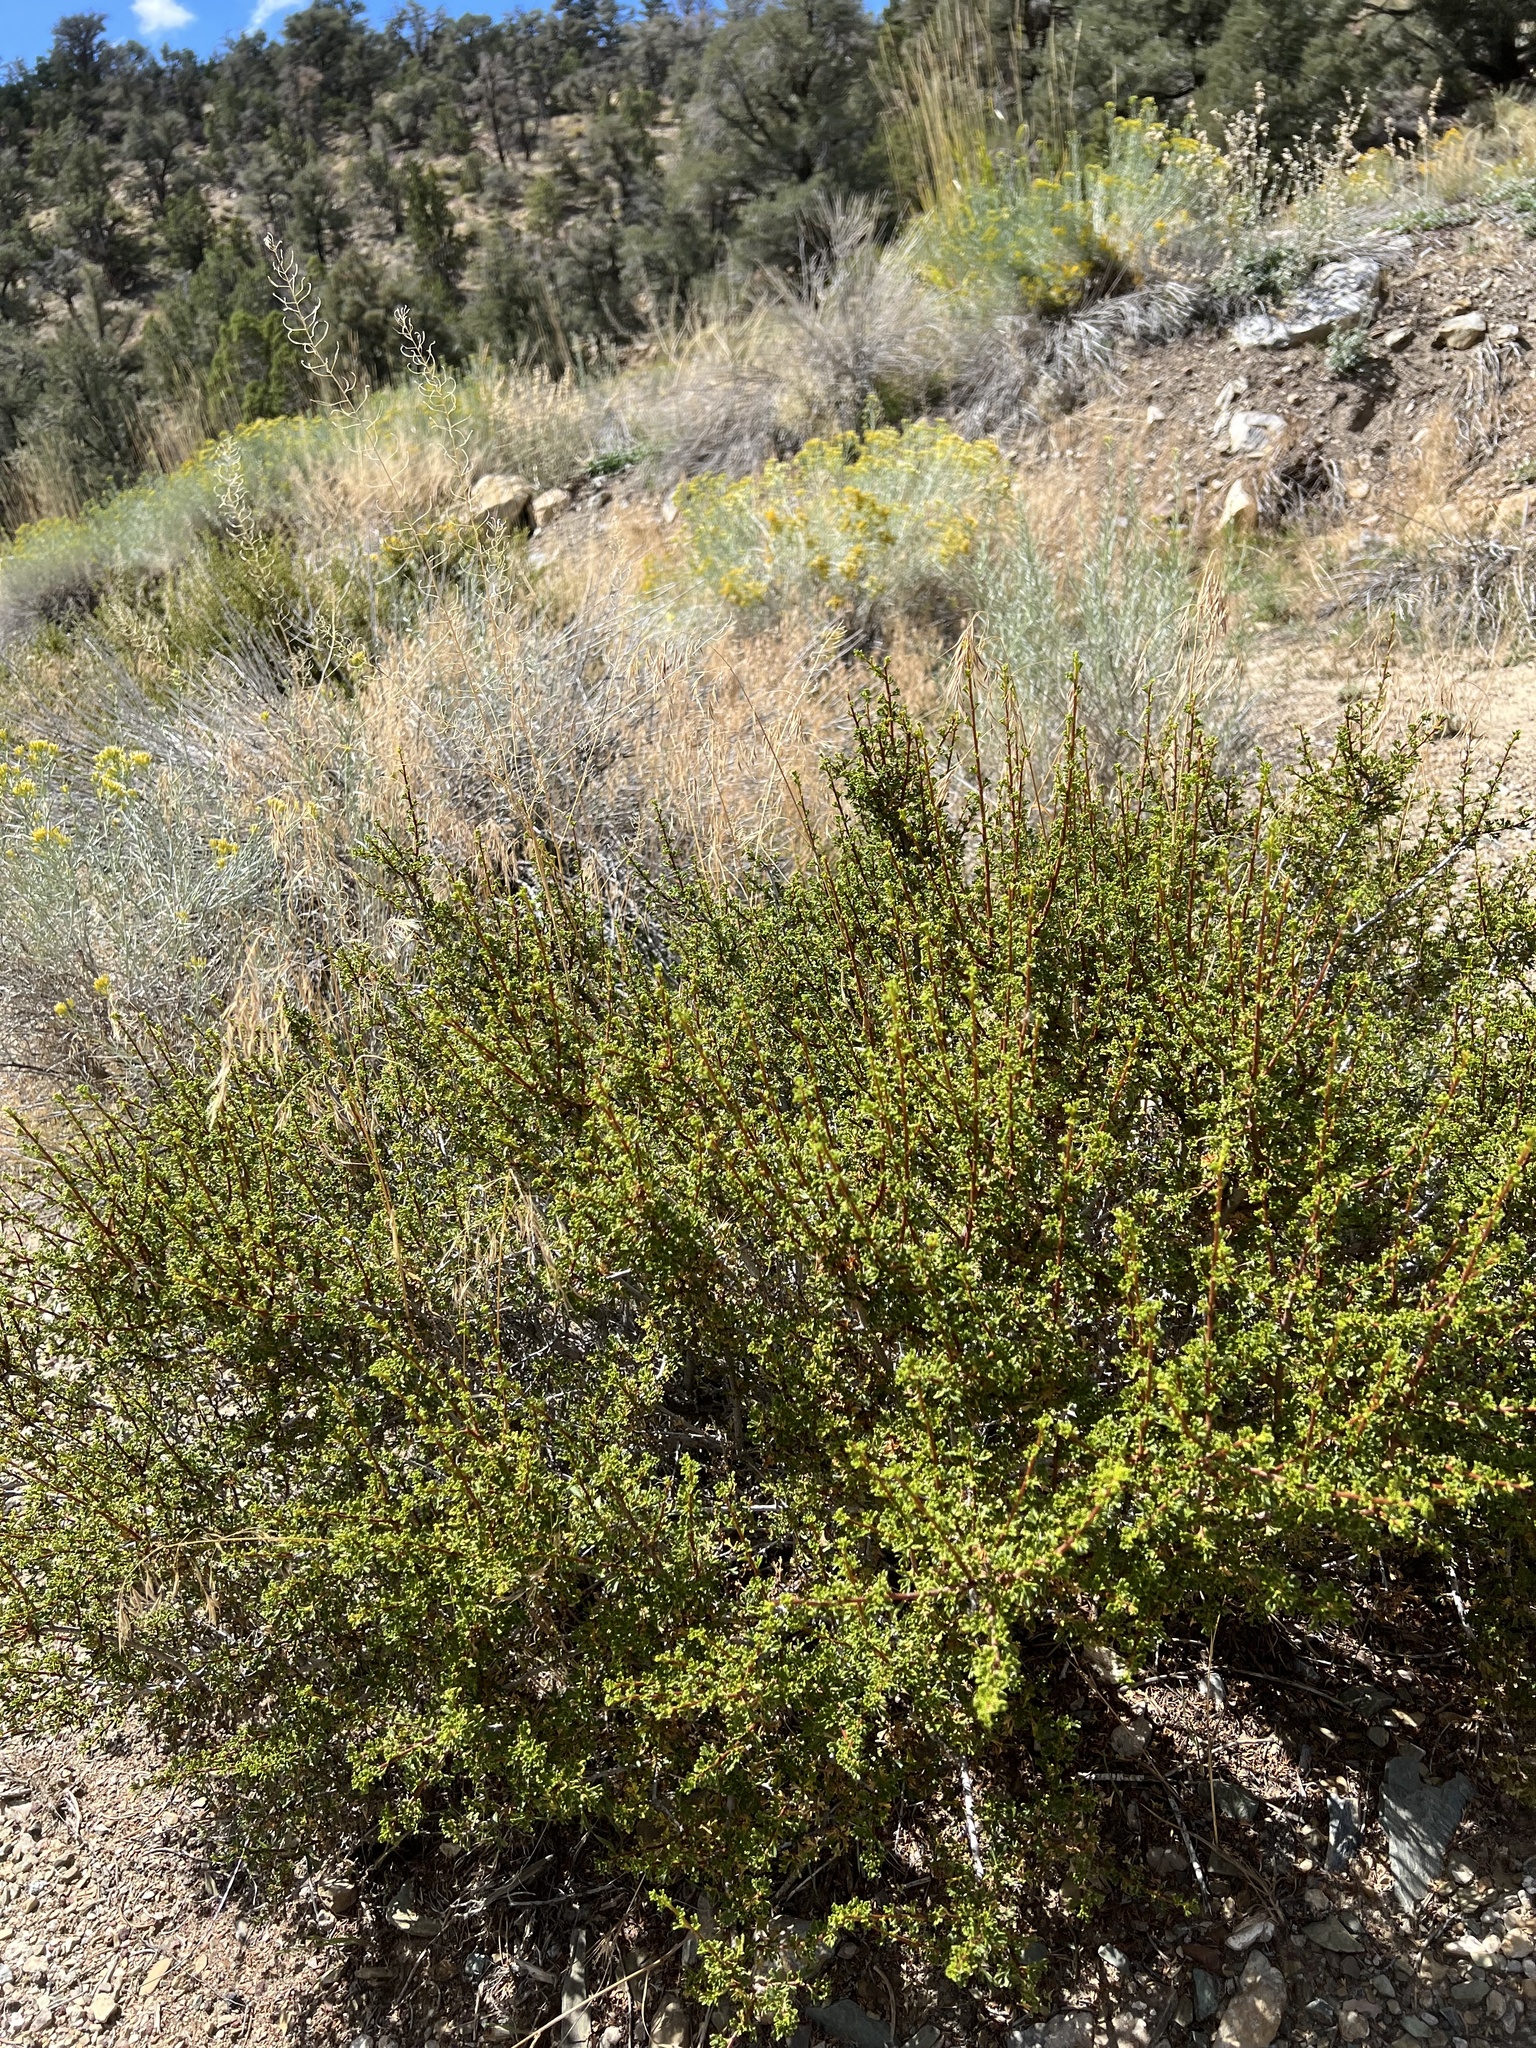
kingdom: Plantae
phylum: Tracheophyta
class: Magnoliopsida
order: Rosales
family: Rosaceae
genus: Purshia
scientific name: Purshia glandulosa
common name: Desert bitterbrush
